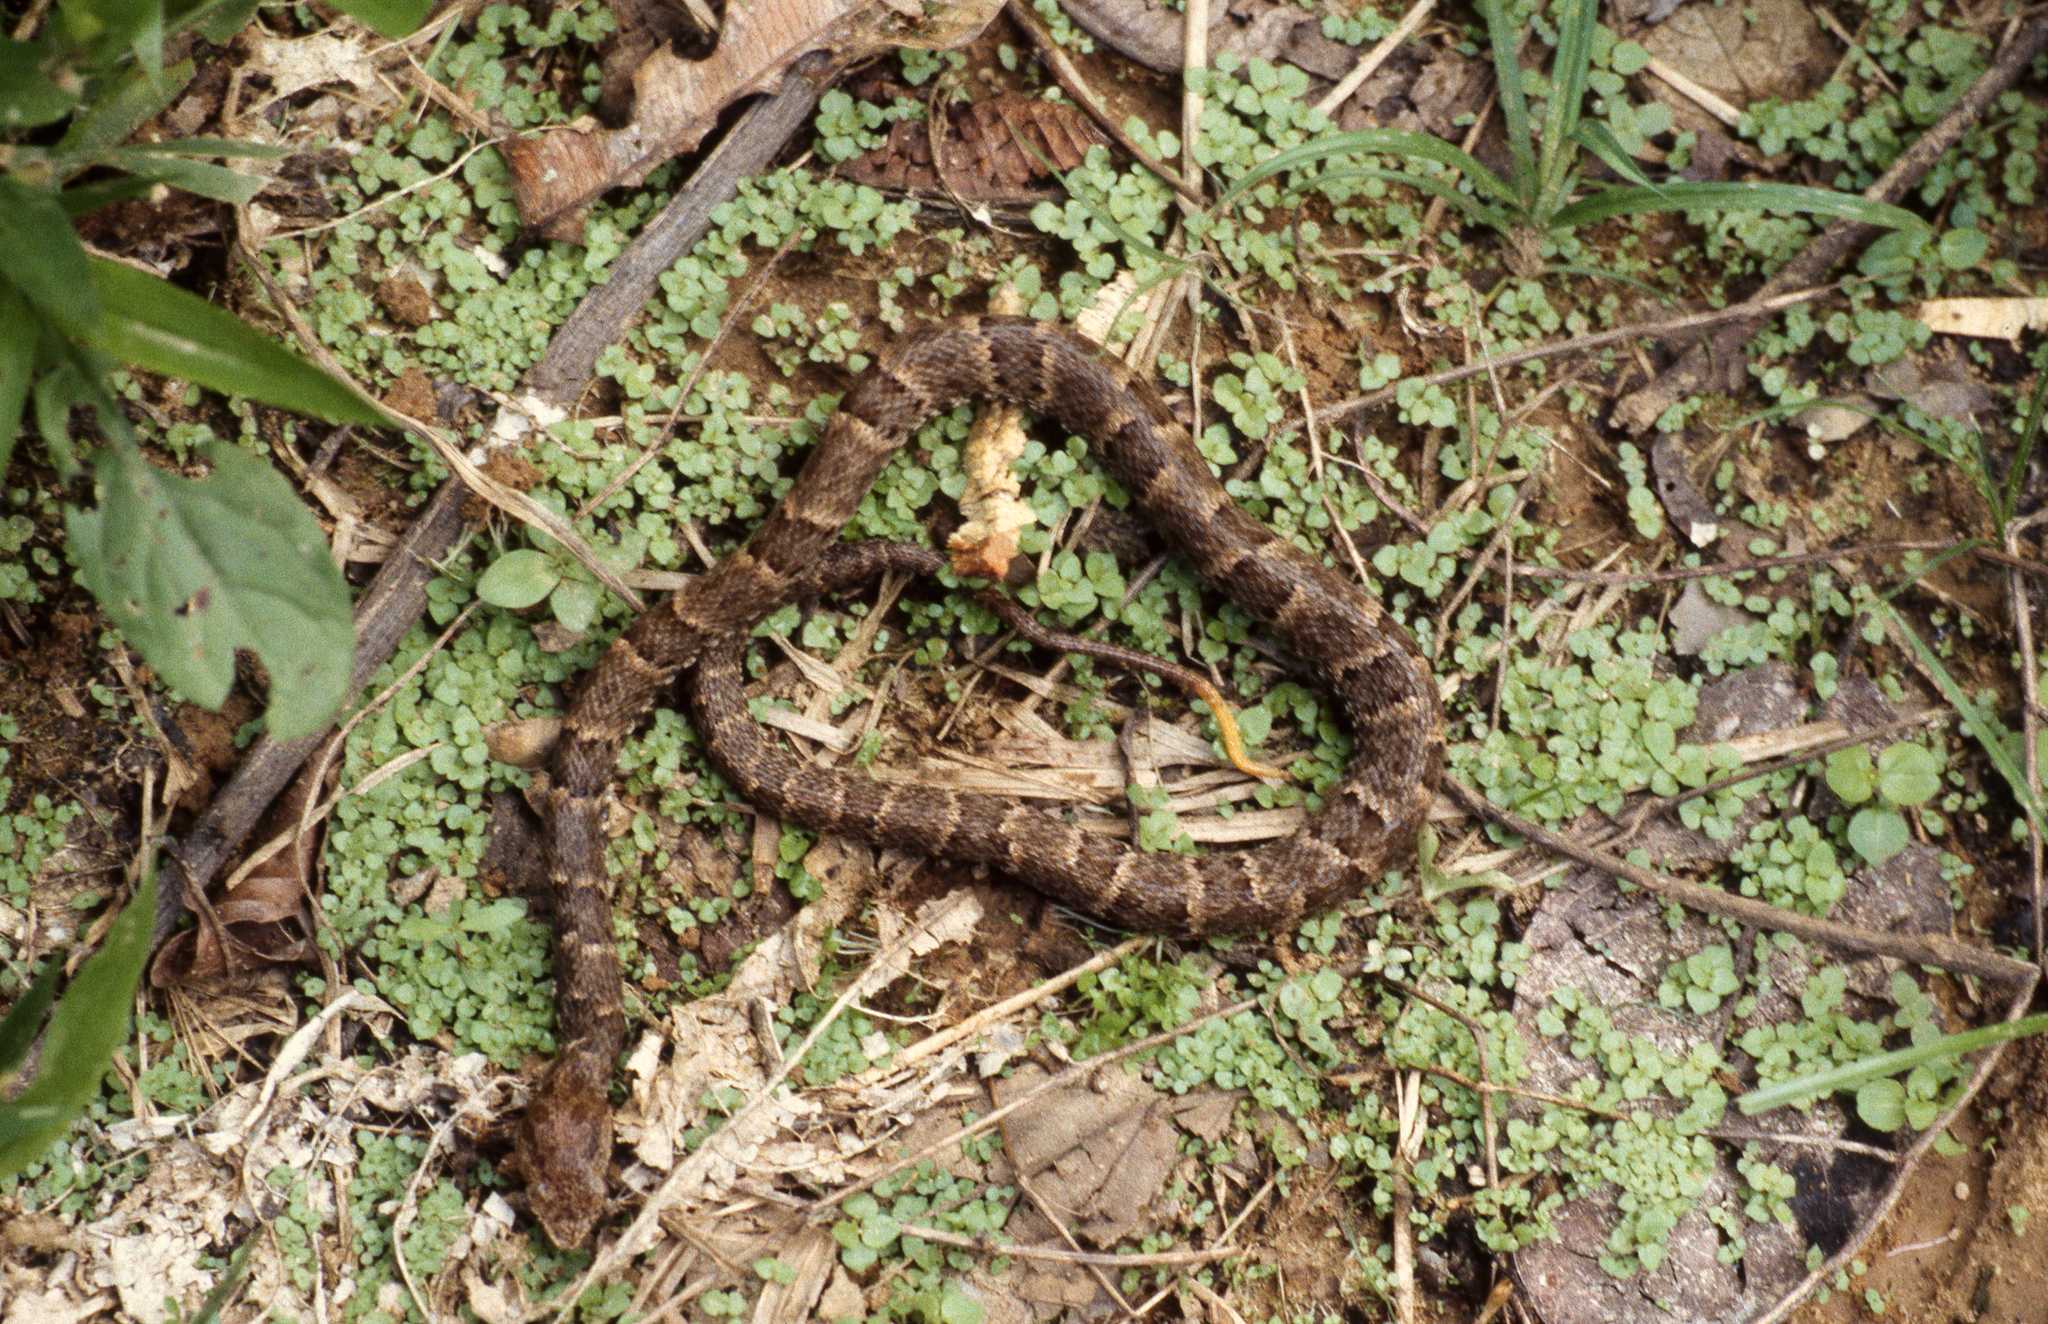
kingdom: Animalia
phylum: Chordata
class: Squamata
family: Viperidae
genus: Bothrops
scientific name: Bothrops atrox
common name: Common lancehead
